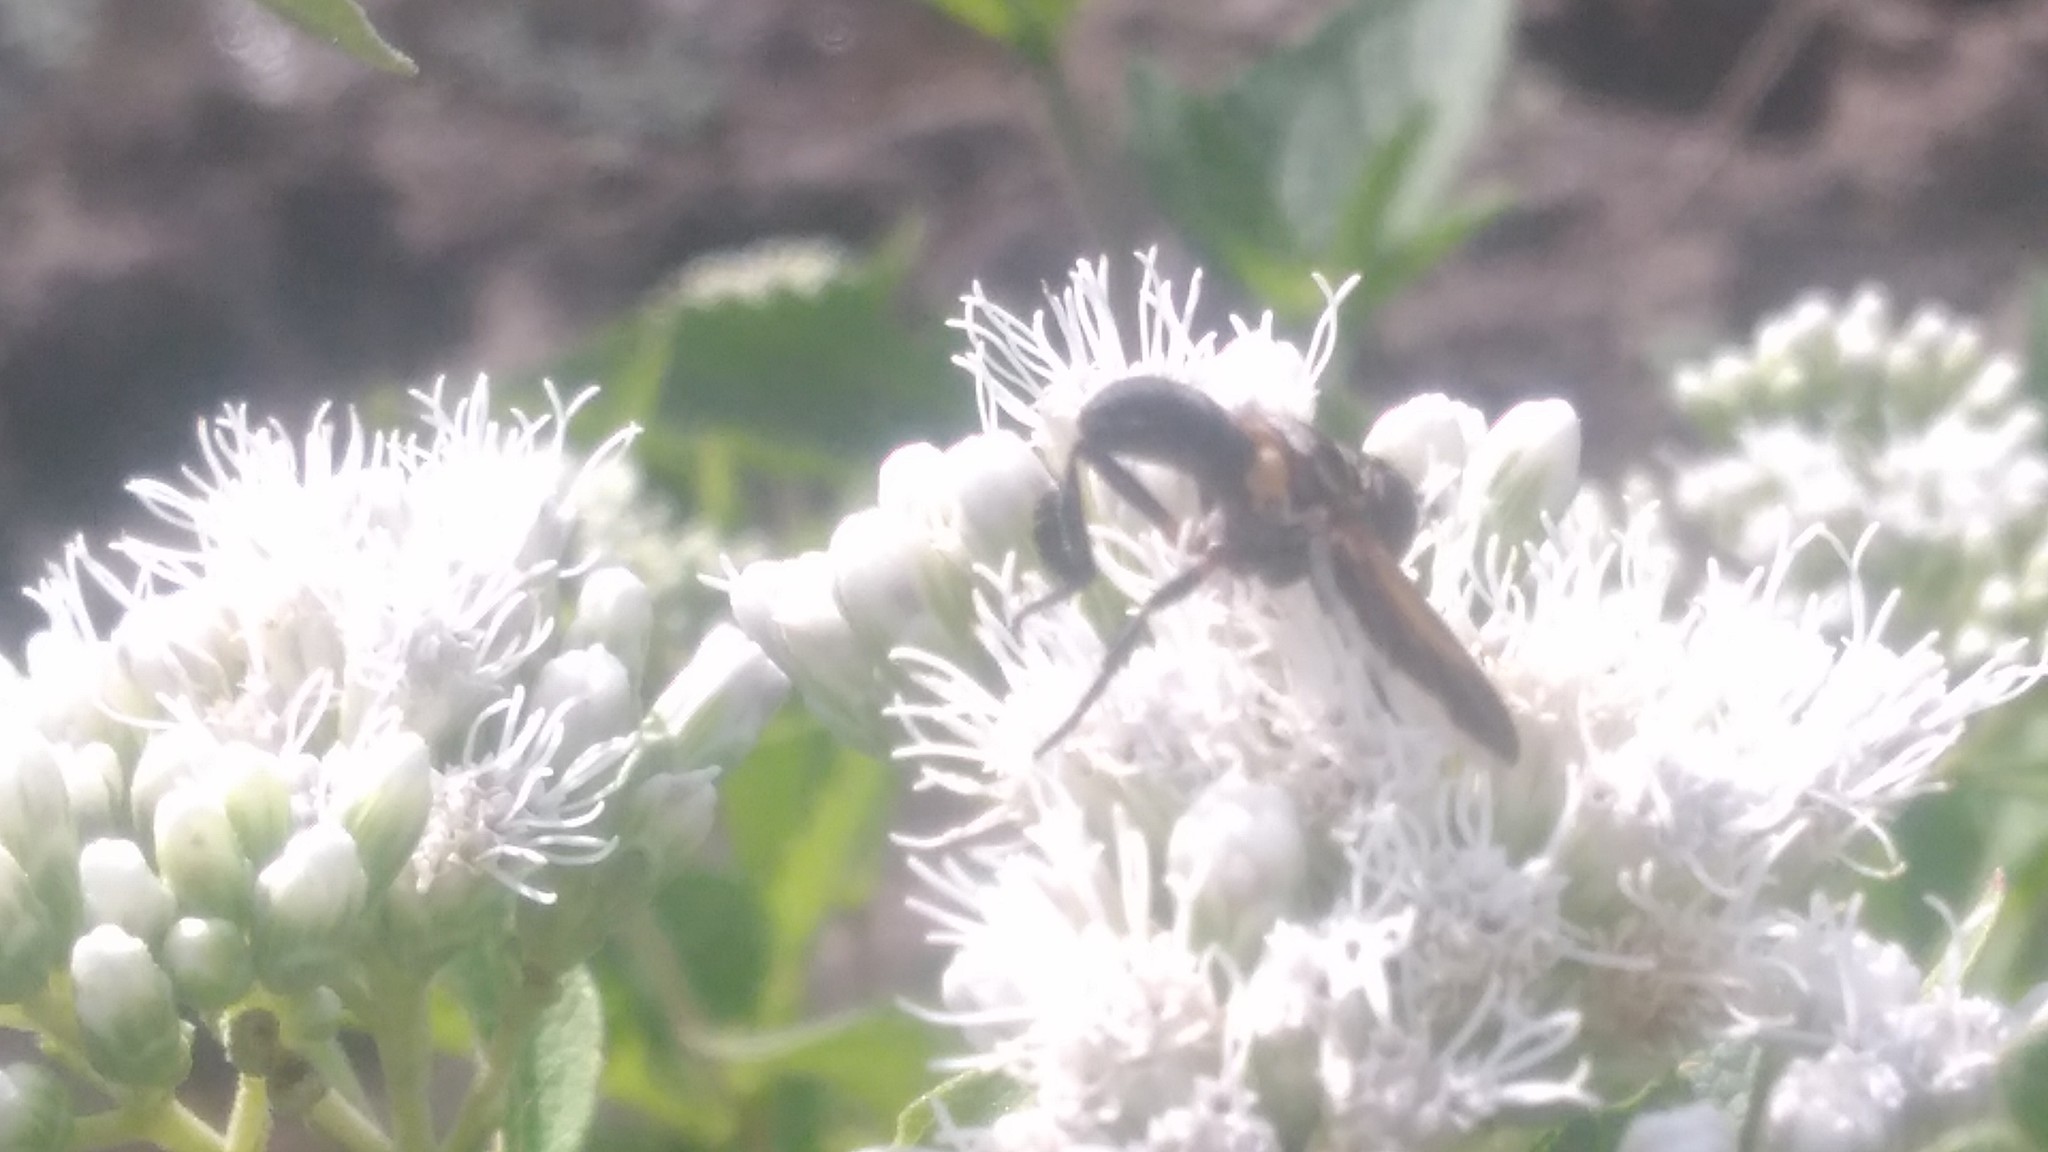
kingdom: Animalia
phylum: Arthropoda
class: Insecta
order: Diptera
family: Tachinidae
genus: Trichopoda
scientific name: Trichopoda pennipes
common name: Tachinid fly
